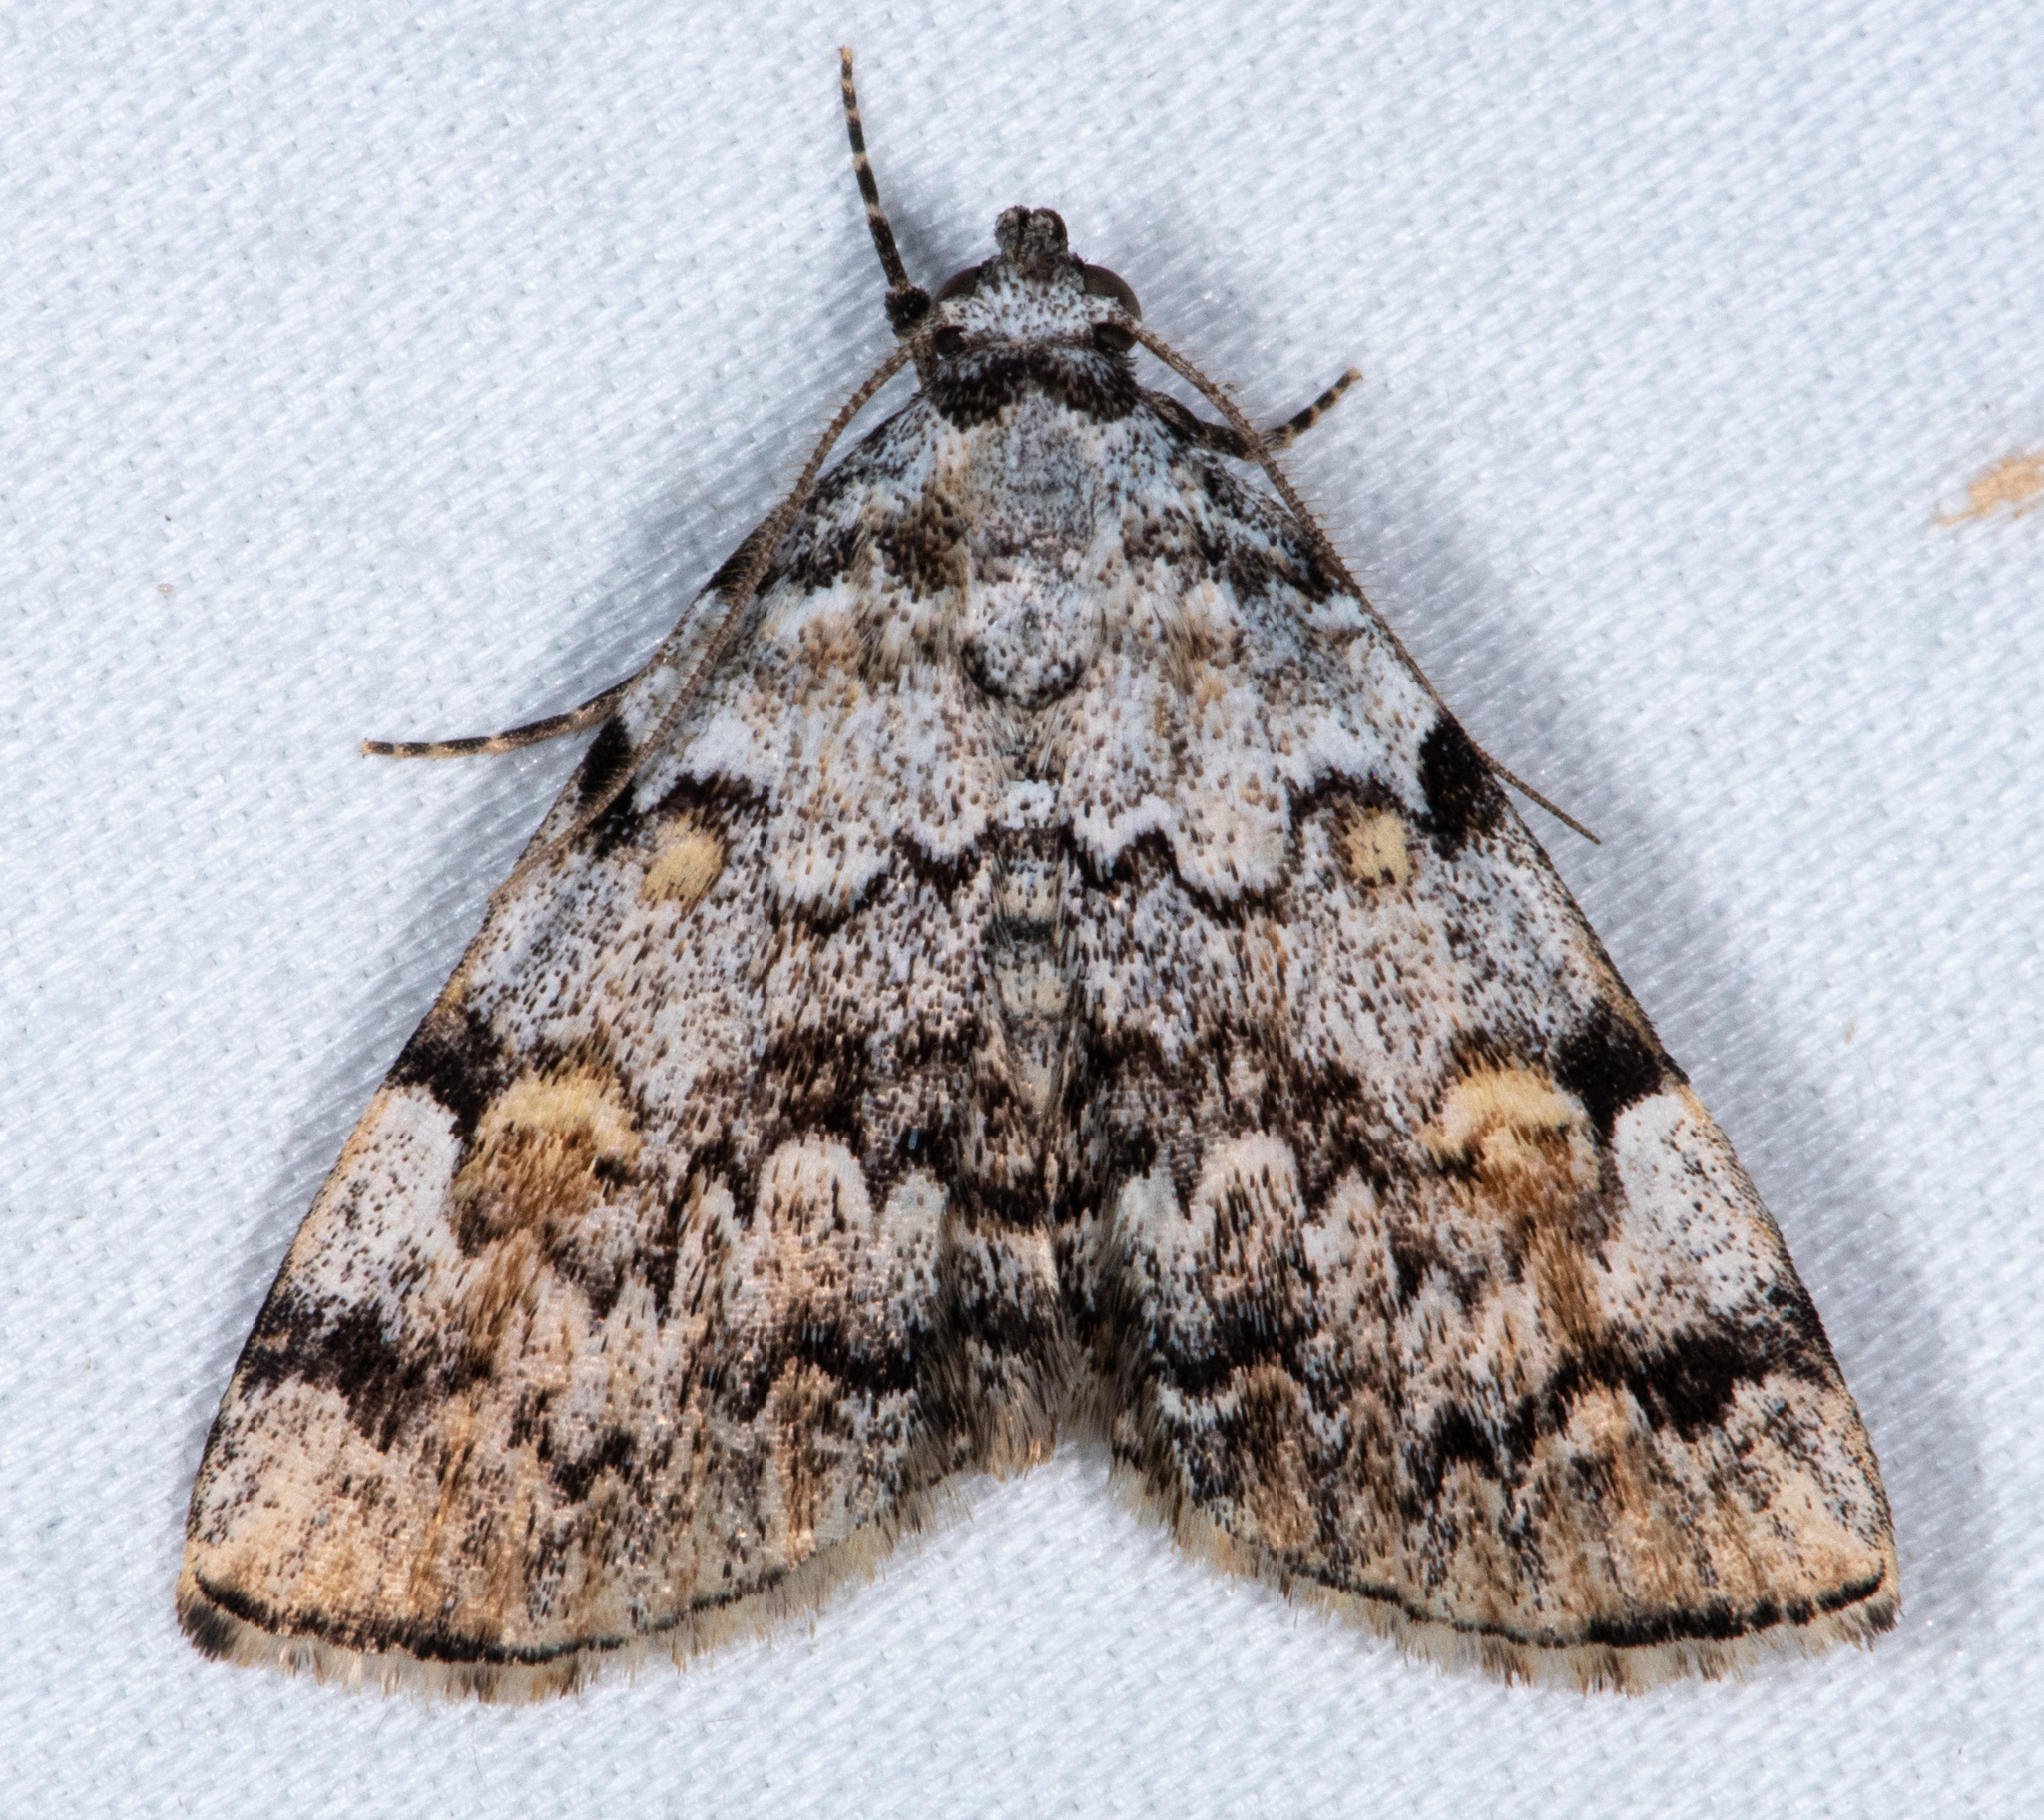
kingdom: Animalia
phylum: Arthropoda
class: Insecta
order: Lepidoptera
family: Erebidae
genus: Idia
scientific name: Idia americalis
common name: American idia moth
